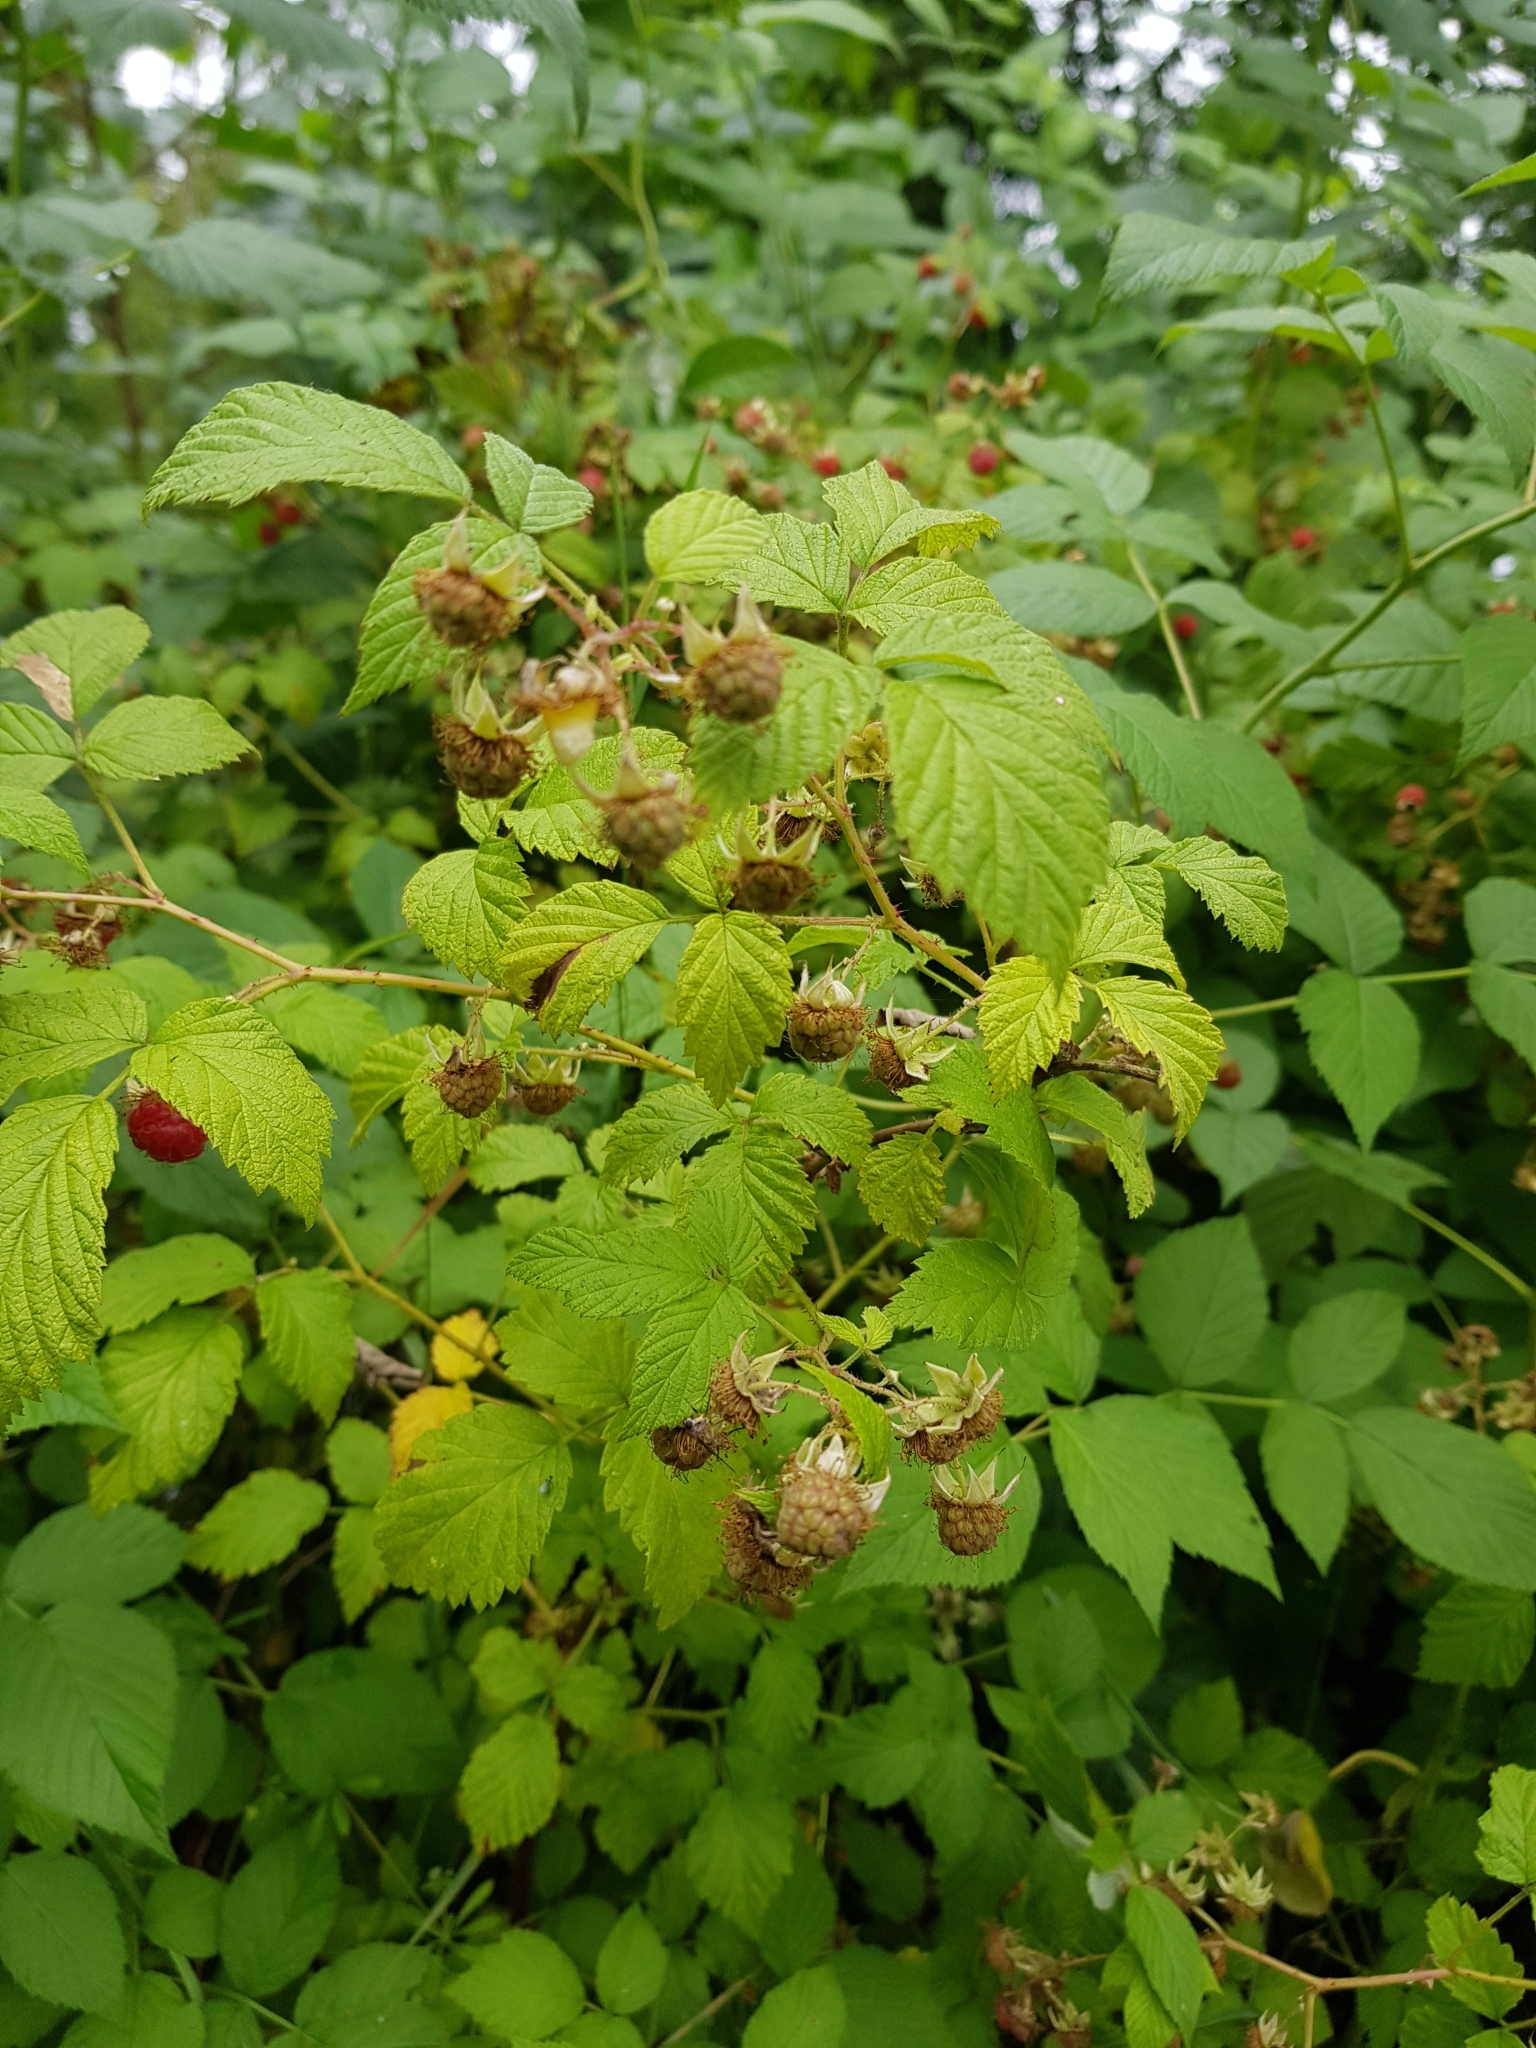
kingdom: Plantae
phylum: Tracheophyta
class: Magnoliopsida
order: Rosales
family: Rosaceae
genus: Rubus
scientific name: Rubus idaeus
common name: Raspberry
